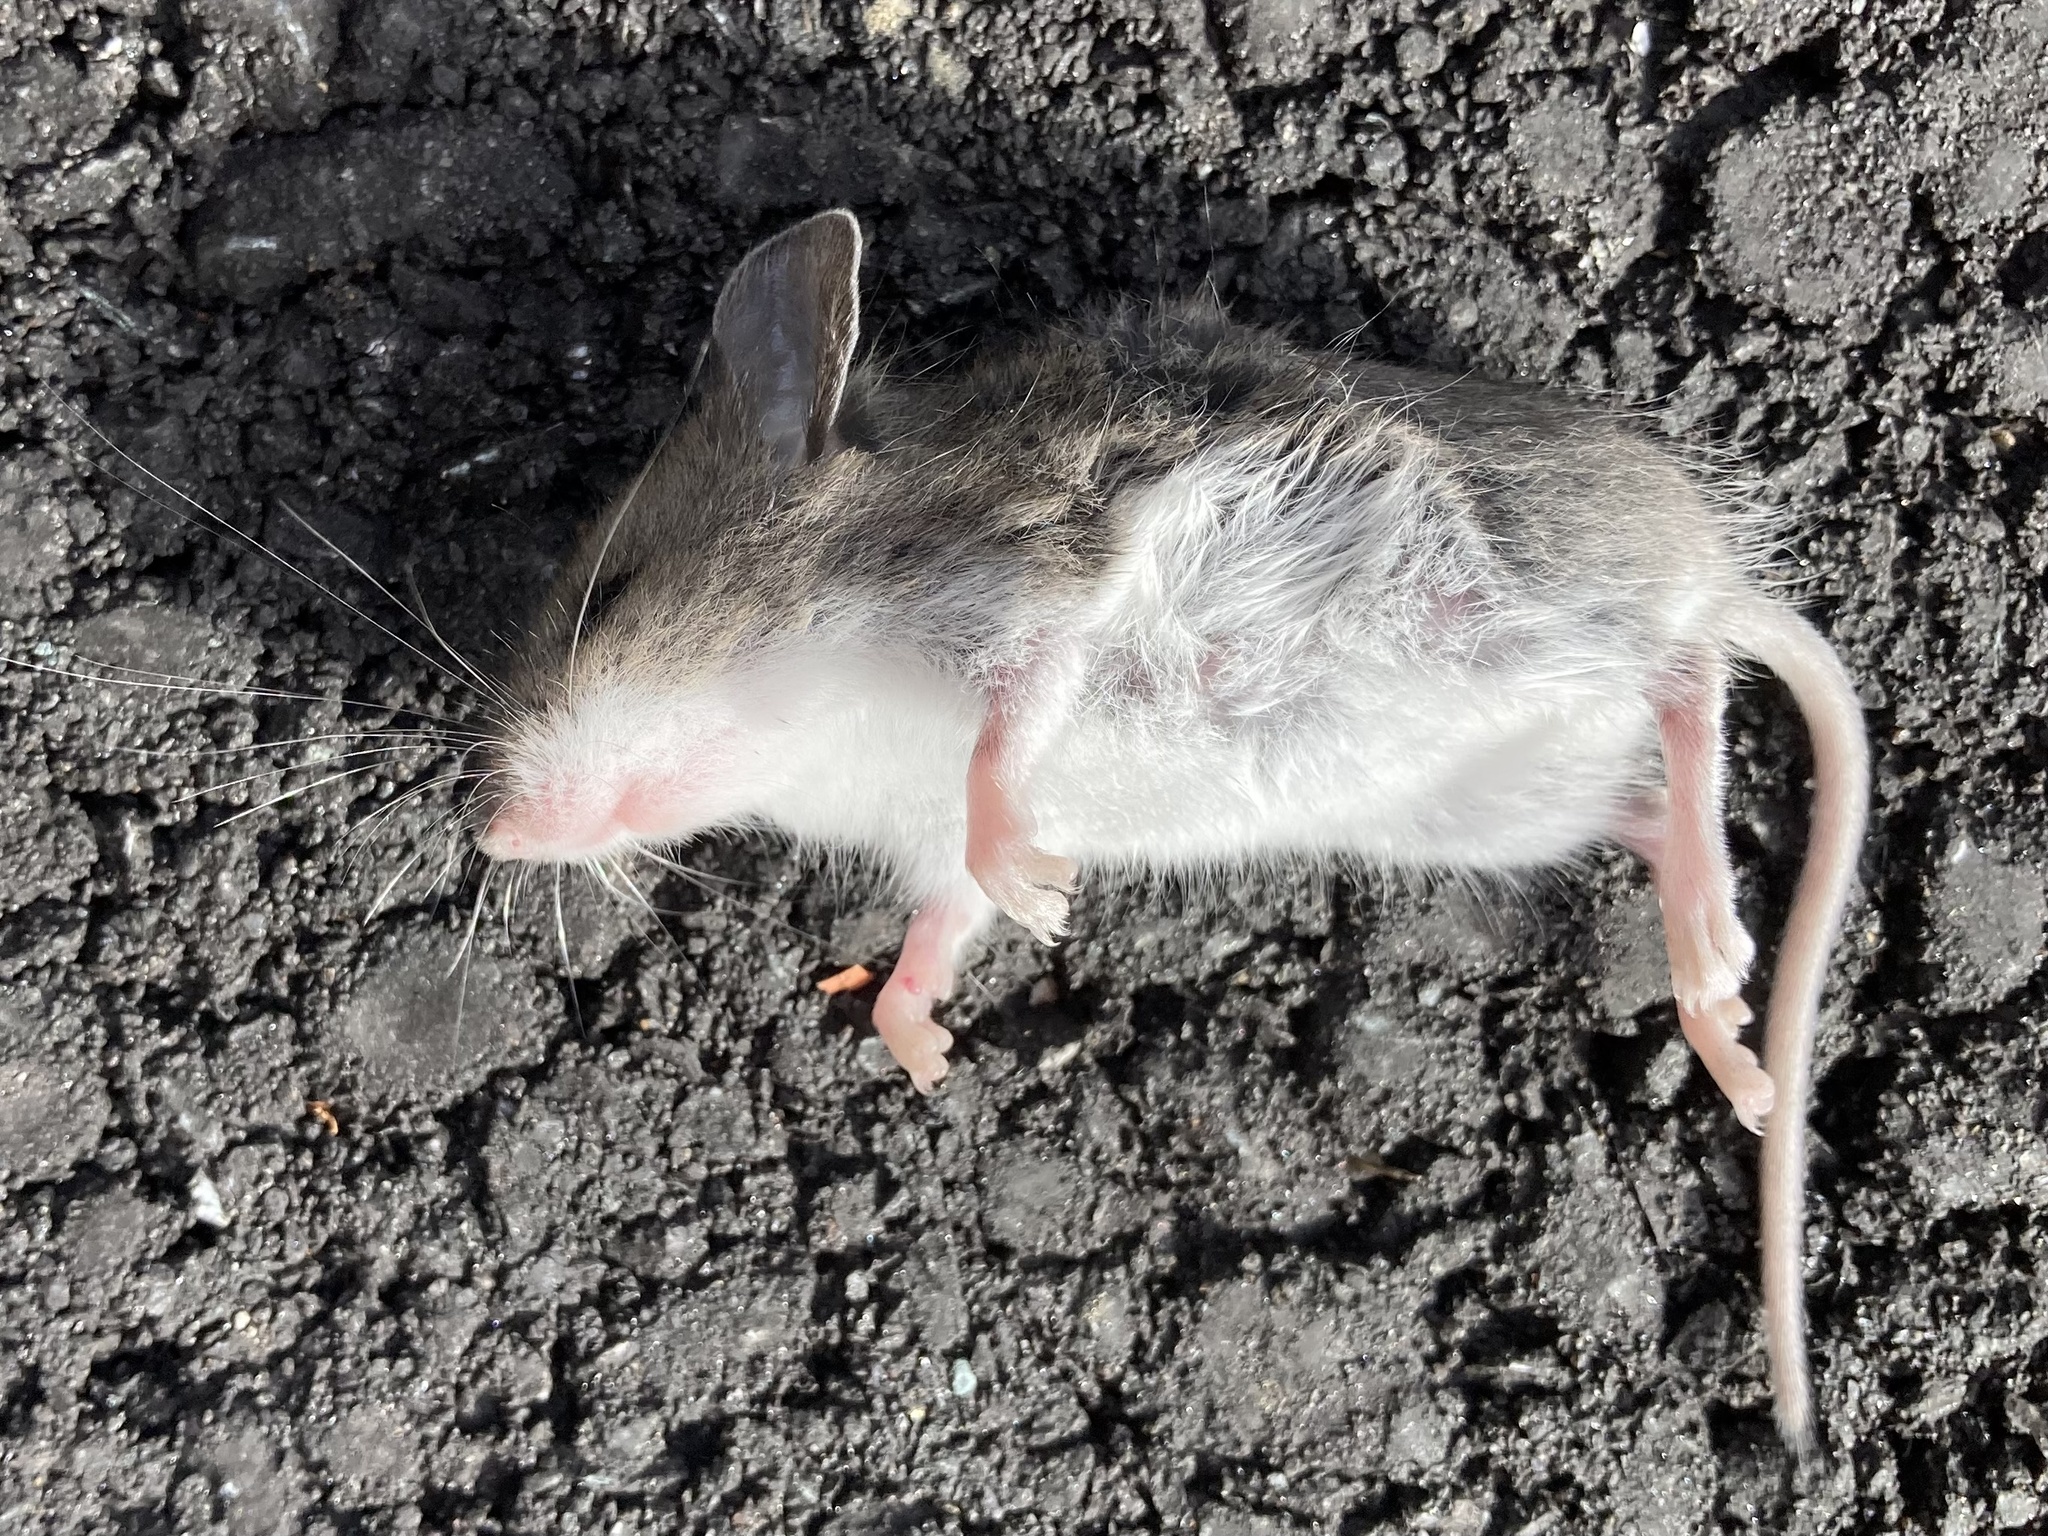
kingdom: Animalia
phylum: Chordata
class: Mammalia
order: Rodentia
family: Cricetidae
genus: Peromyscus
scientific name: Peromyscus
